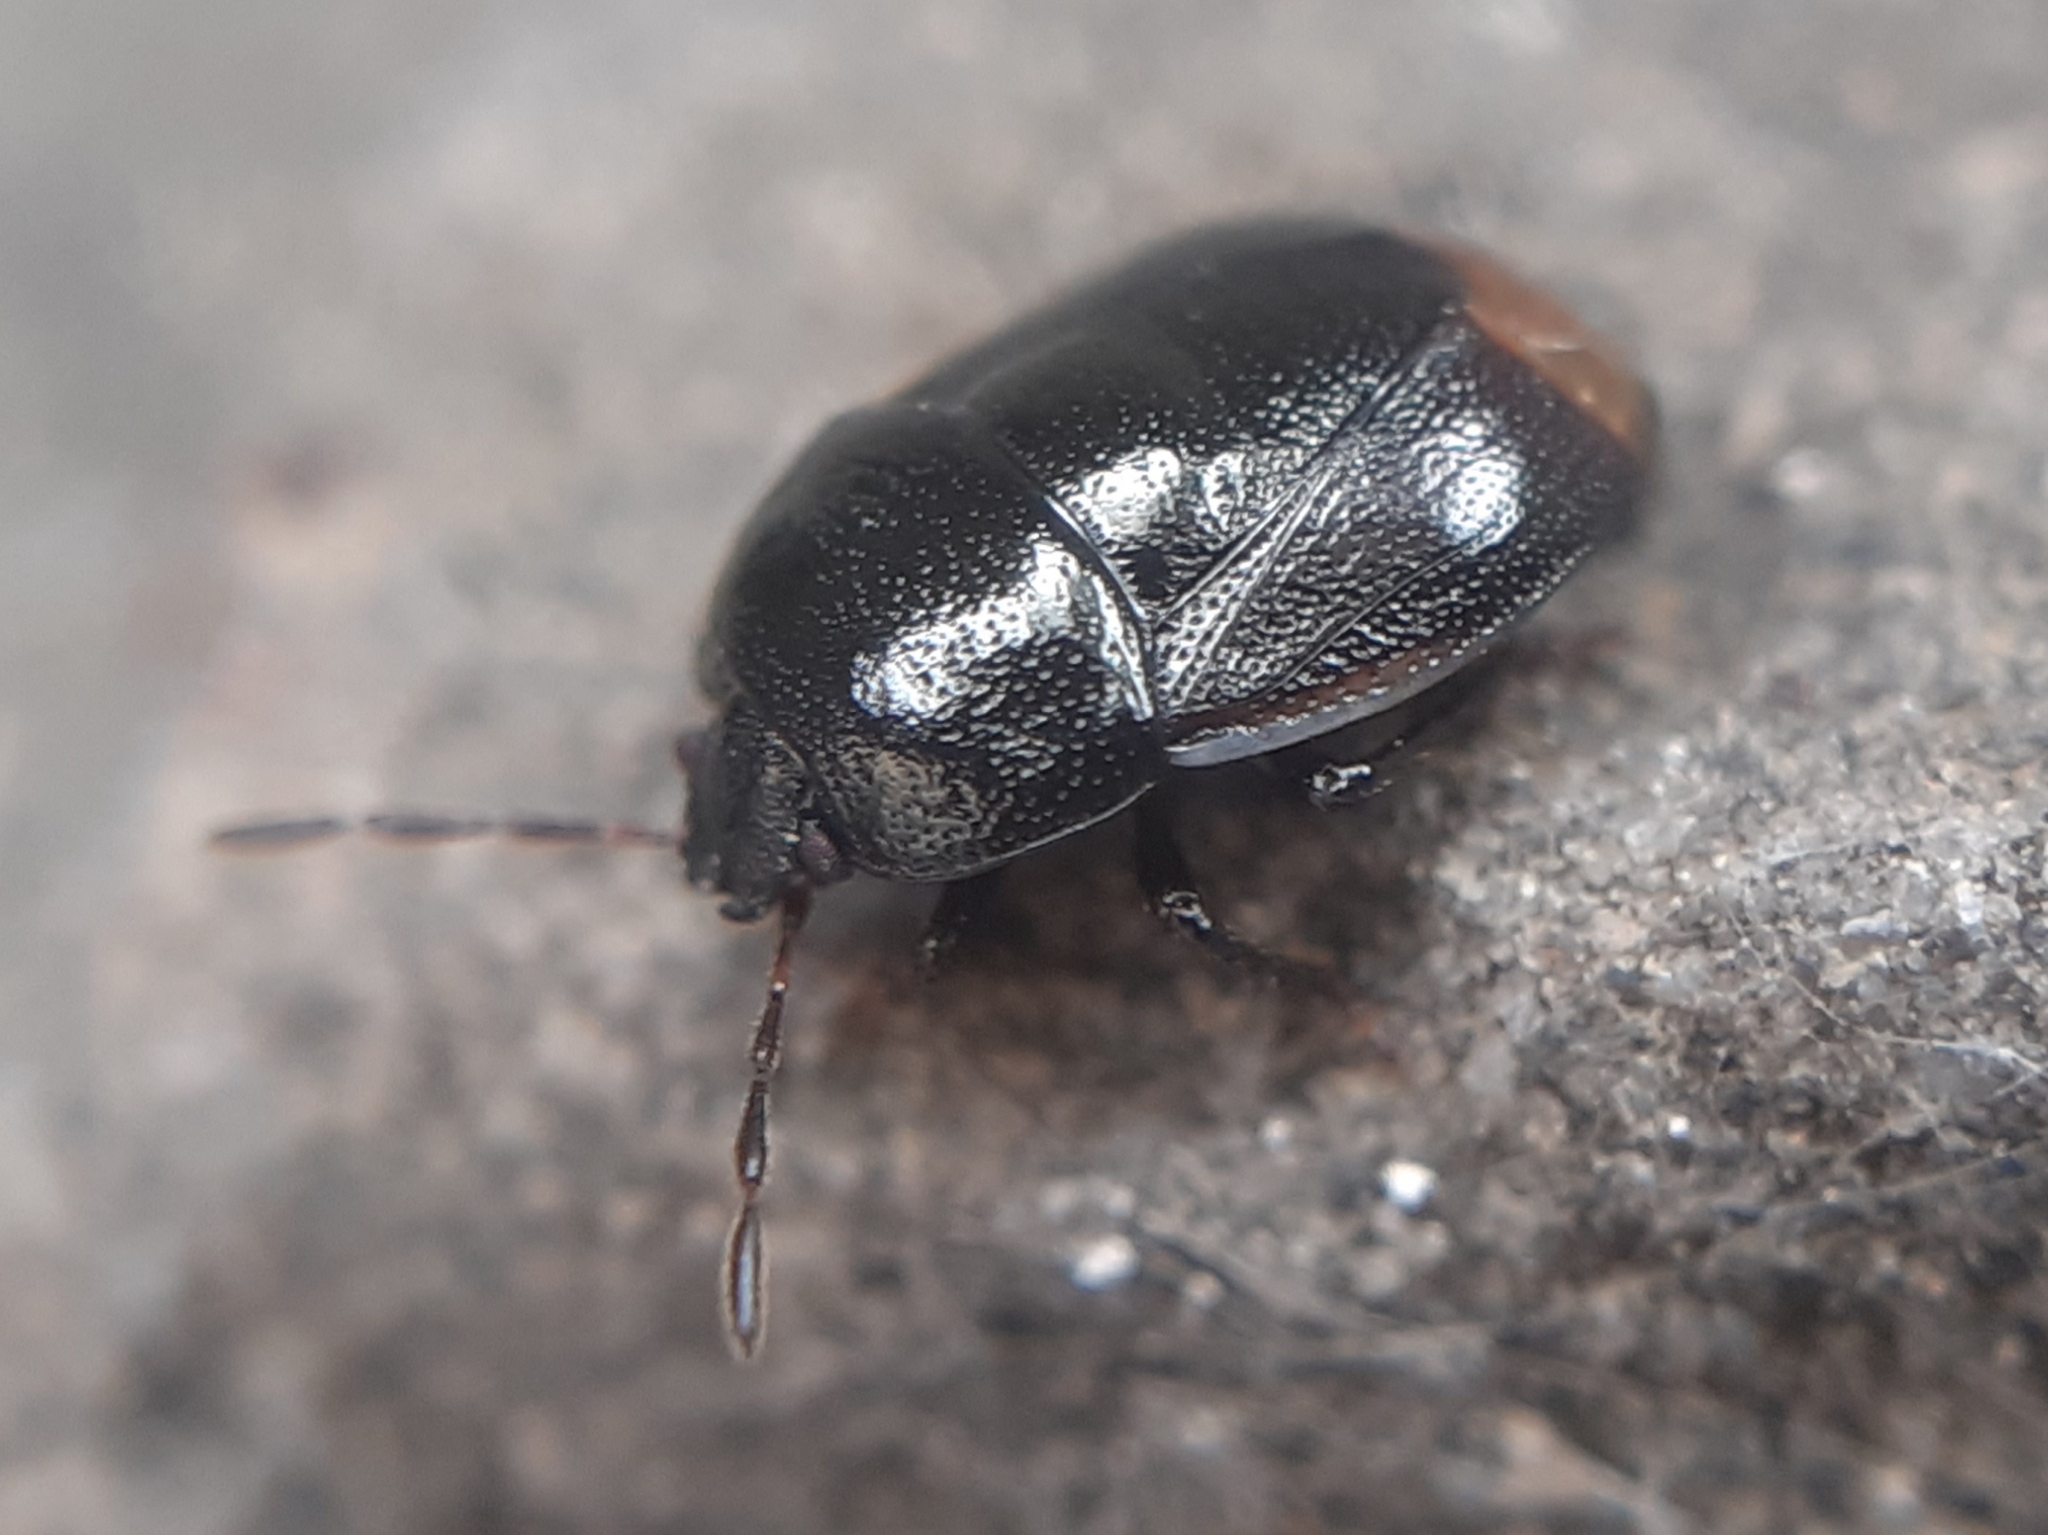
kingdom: Animalia
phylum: Arthropoda
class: Insecta
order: Hemiptera
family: Cydnidae
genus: Legnotus
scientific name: Legnotus limbosus
